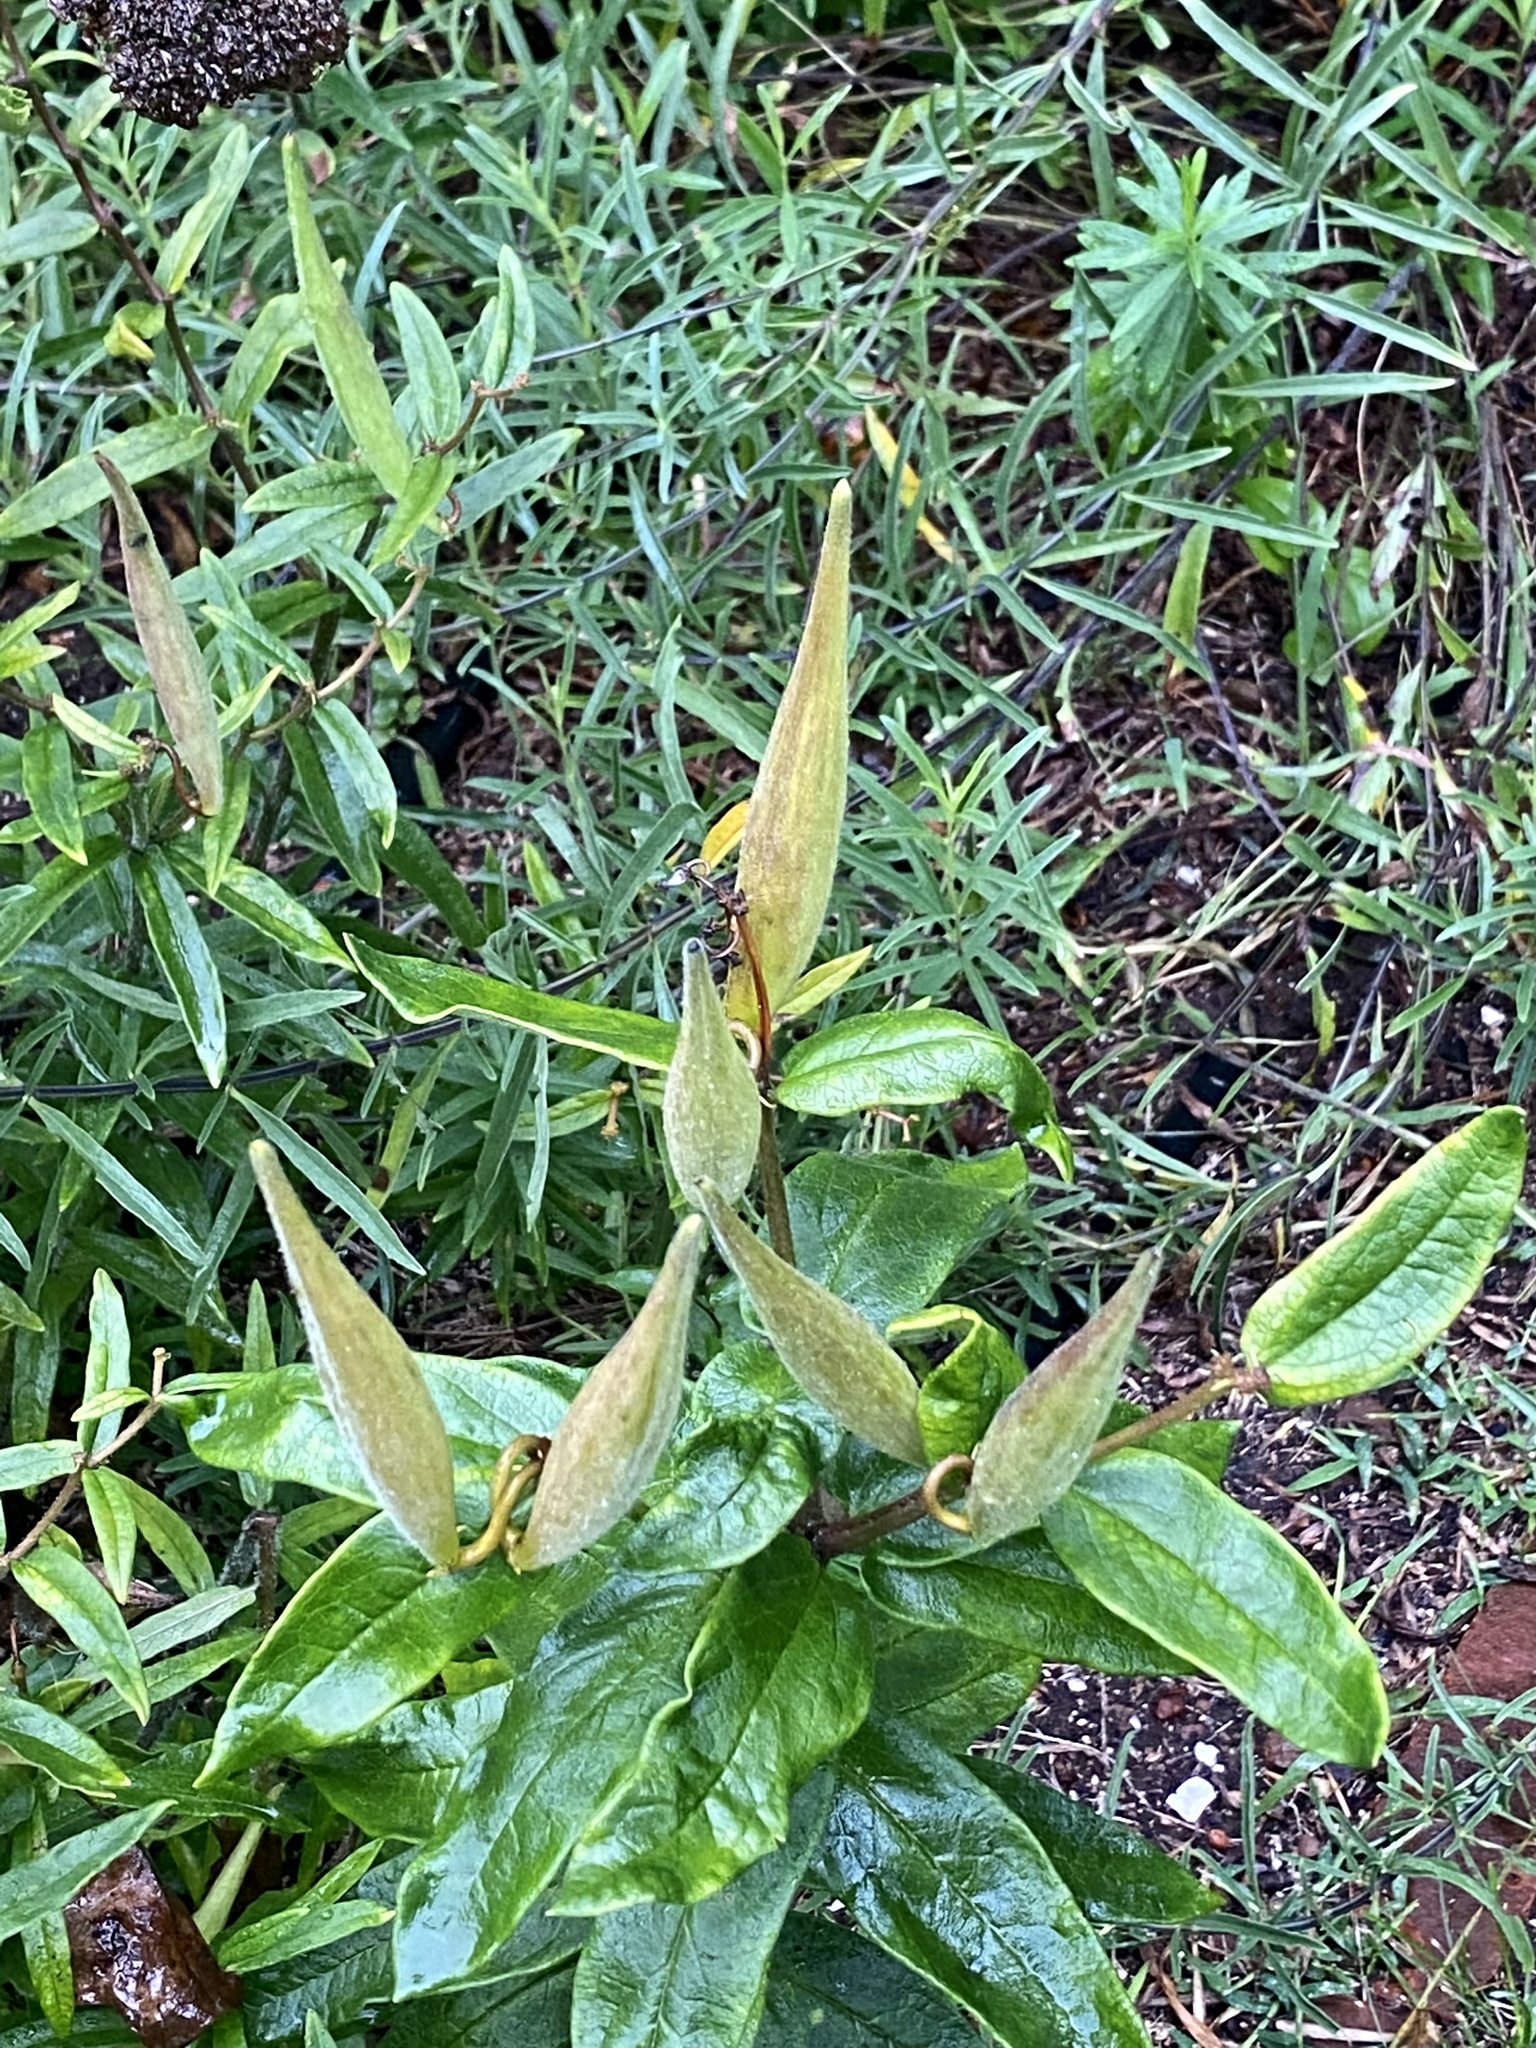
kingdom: Plantae
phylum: Tracheophyta
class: Magnoliopsida
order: Gentianales
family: Apocynaceae
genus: Asclepias
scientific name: Asclepias tuberosa
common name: Butterfly milkweed
